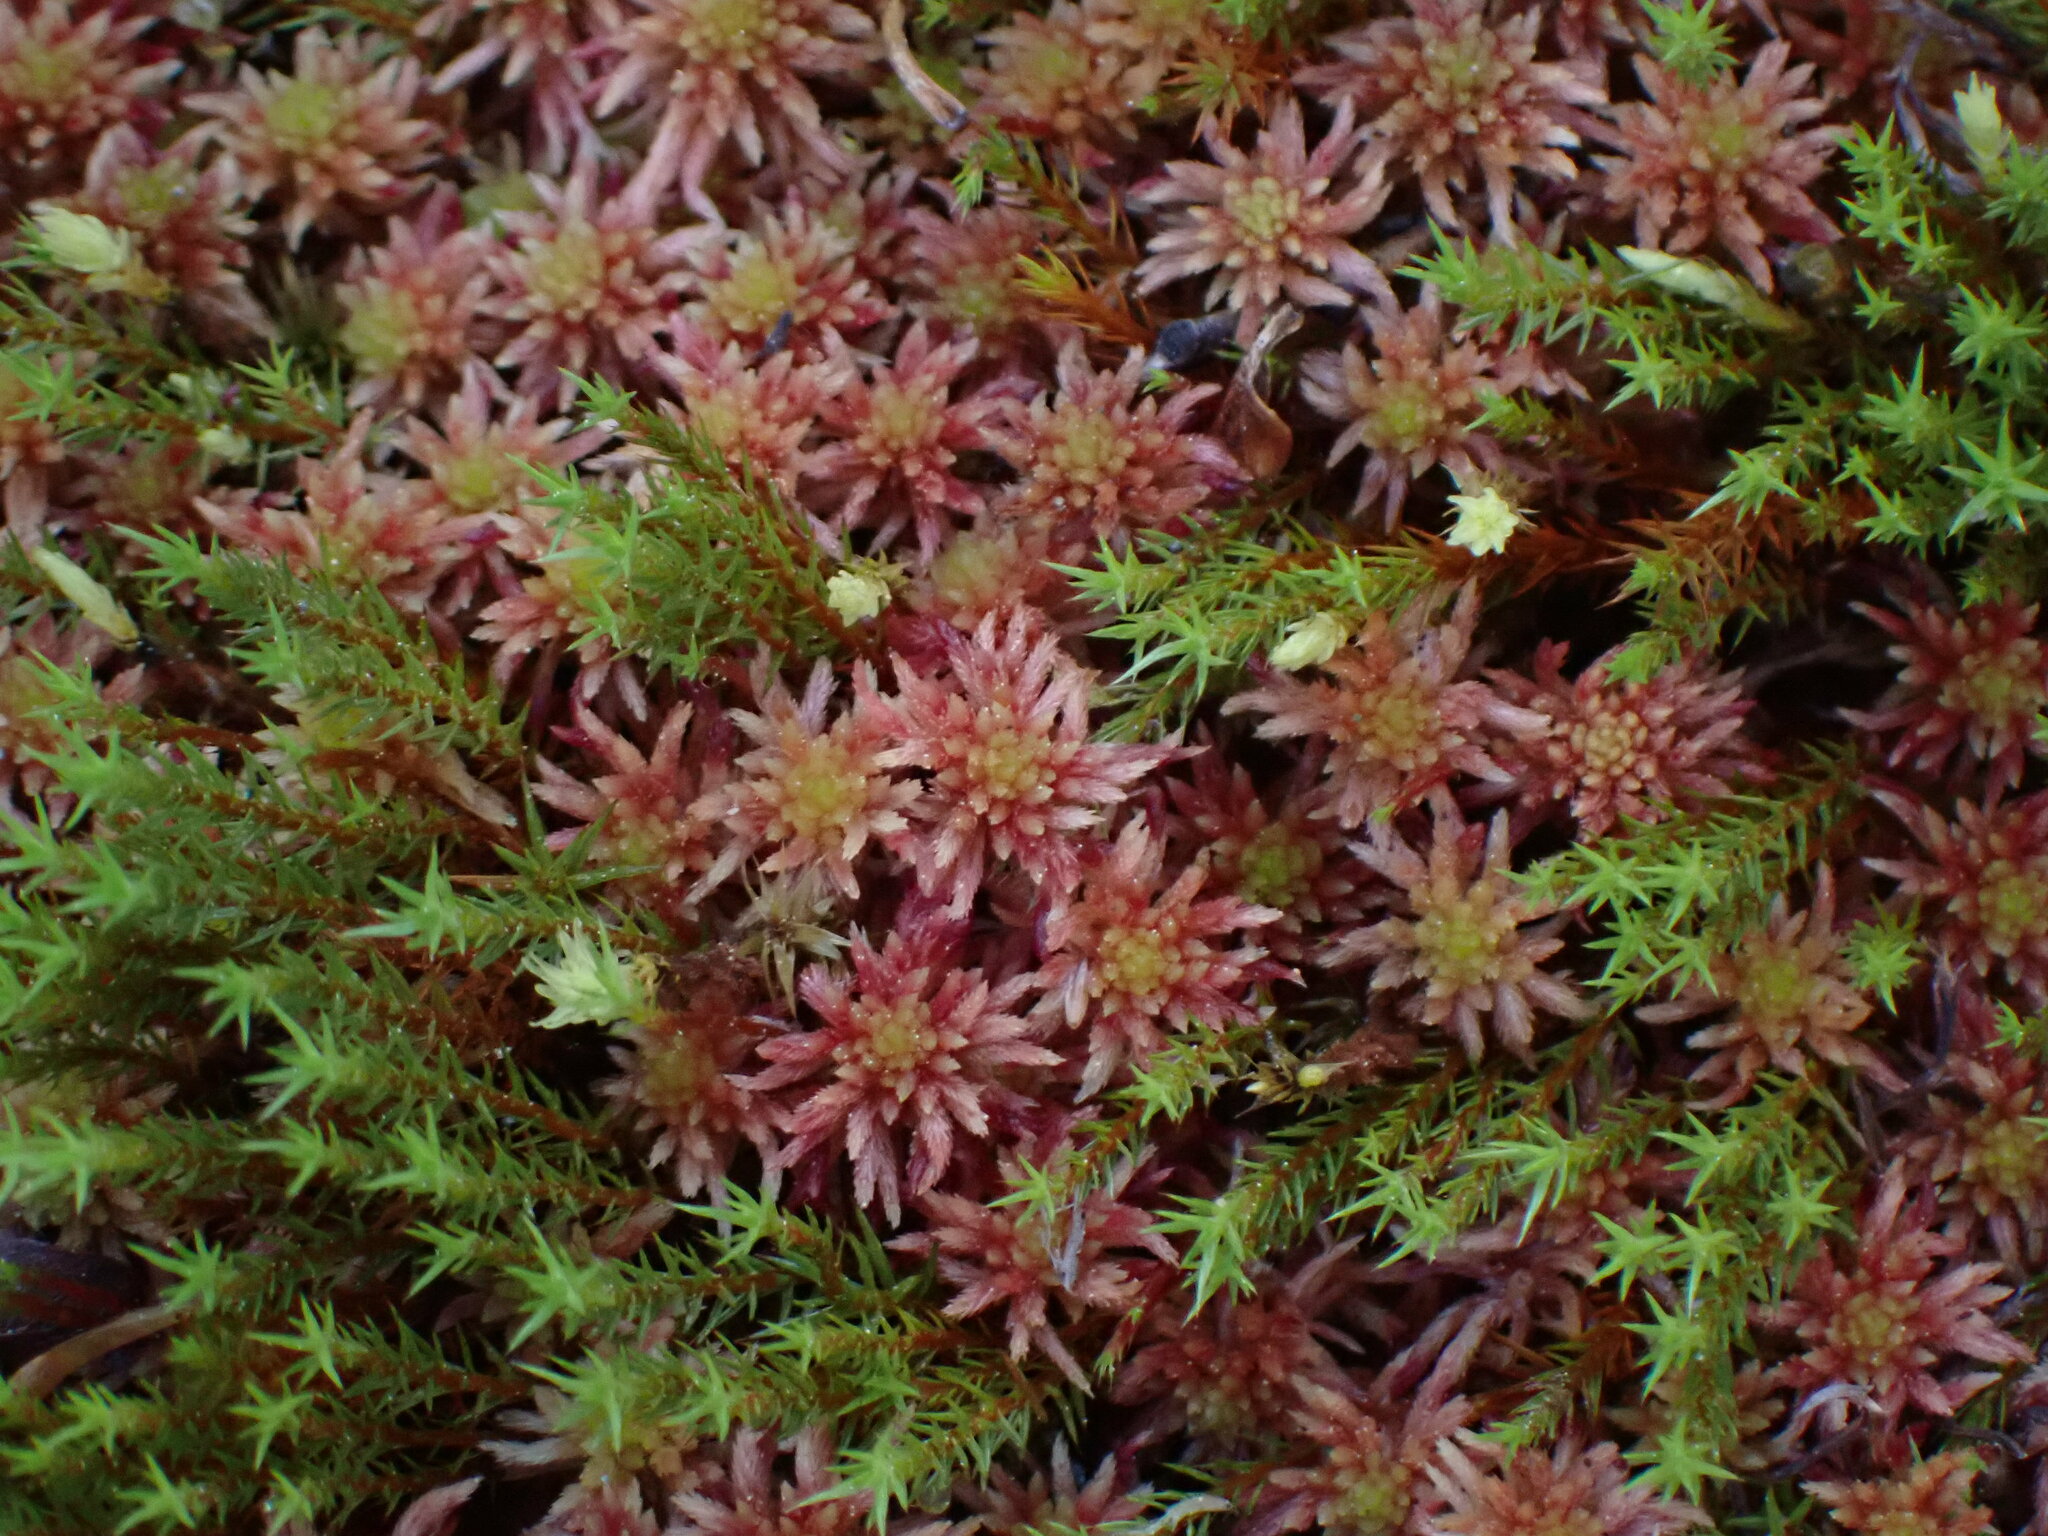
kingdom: Plantae
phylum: Bryophyta
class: Sphagnopsida
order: Sphagnales
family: Sphagnaceae
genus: Sphagnum
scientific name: Sphagnum russowii
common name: Russow's peat moss
